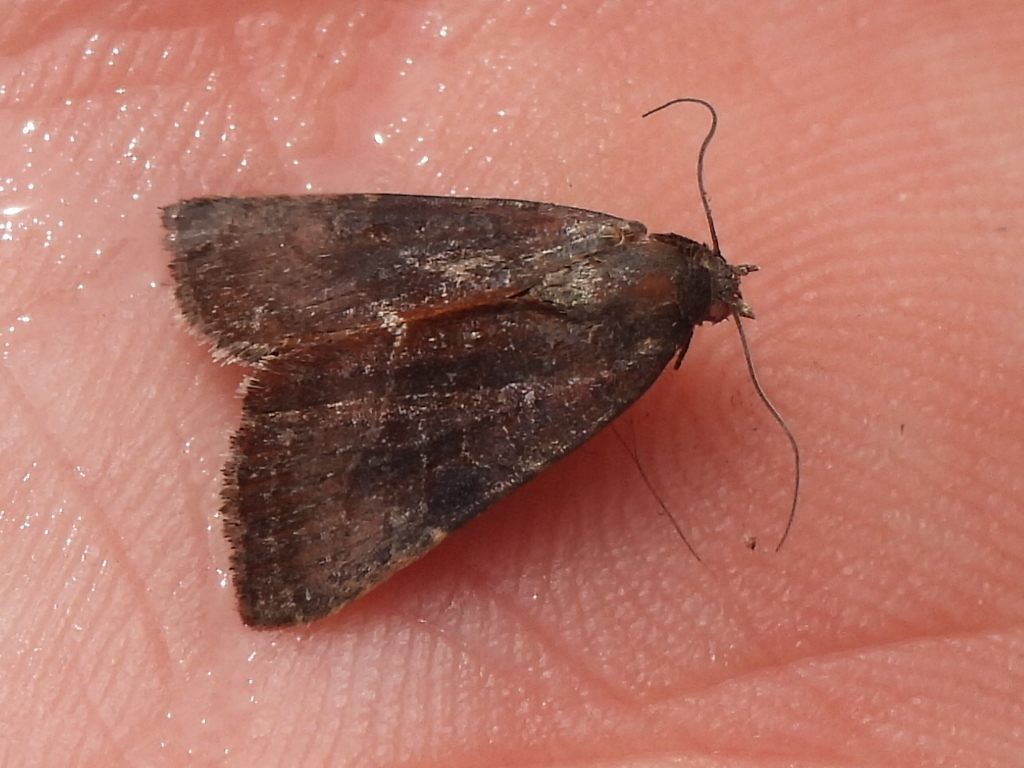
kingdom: Animalia
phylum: Arthropoda
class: Insecta
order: Lepidoptera
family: Noctuidae
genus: Galgula
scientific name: Galgula partita
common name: Wedgeling
